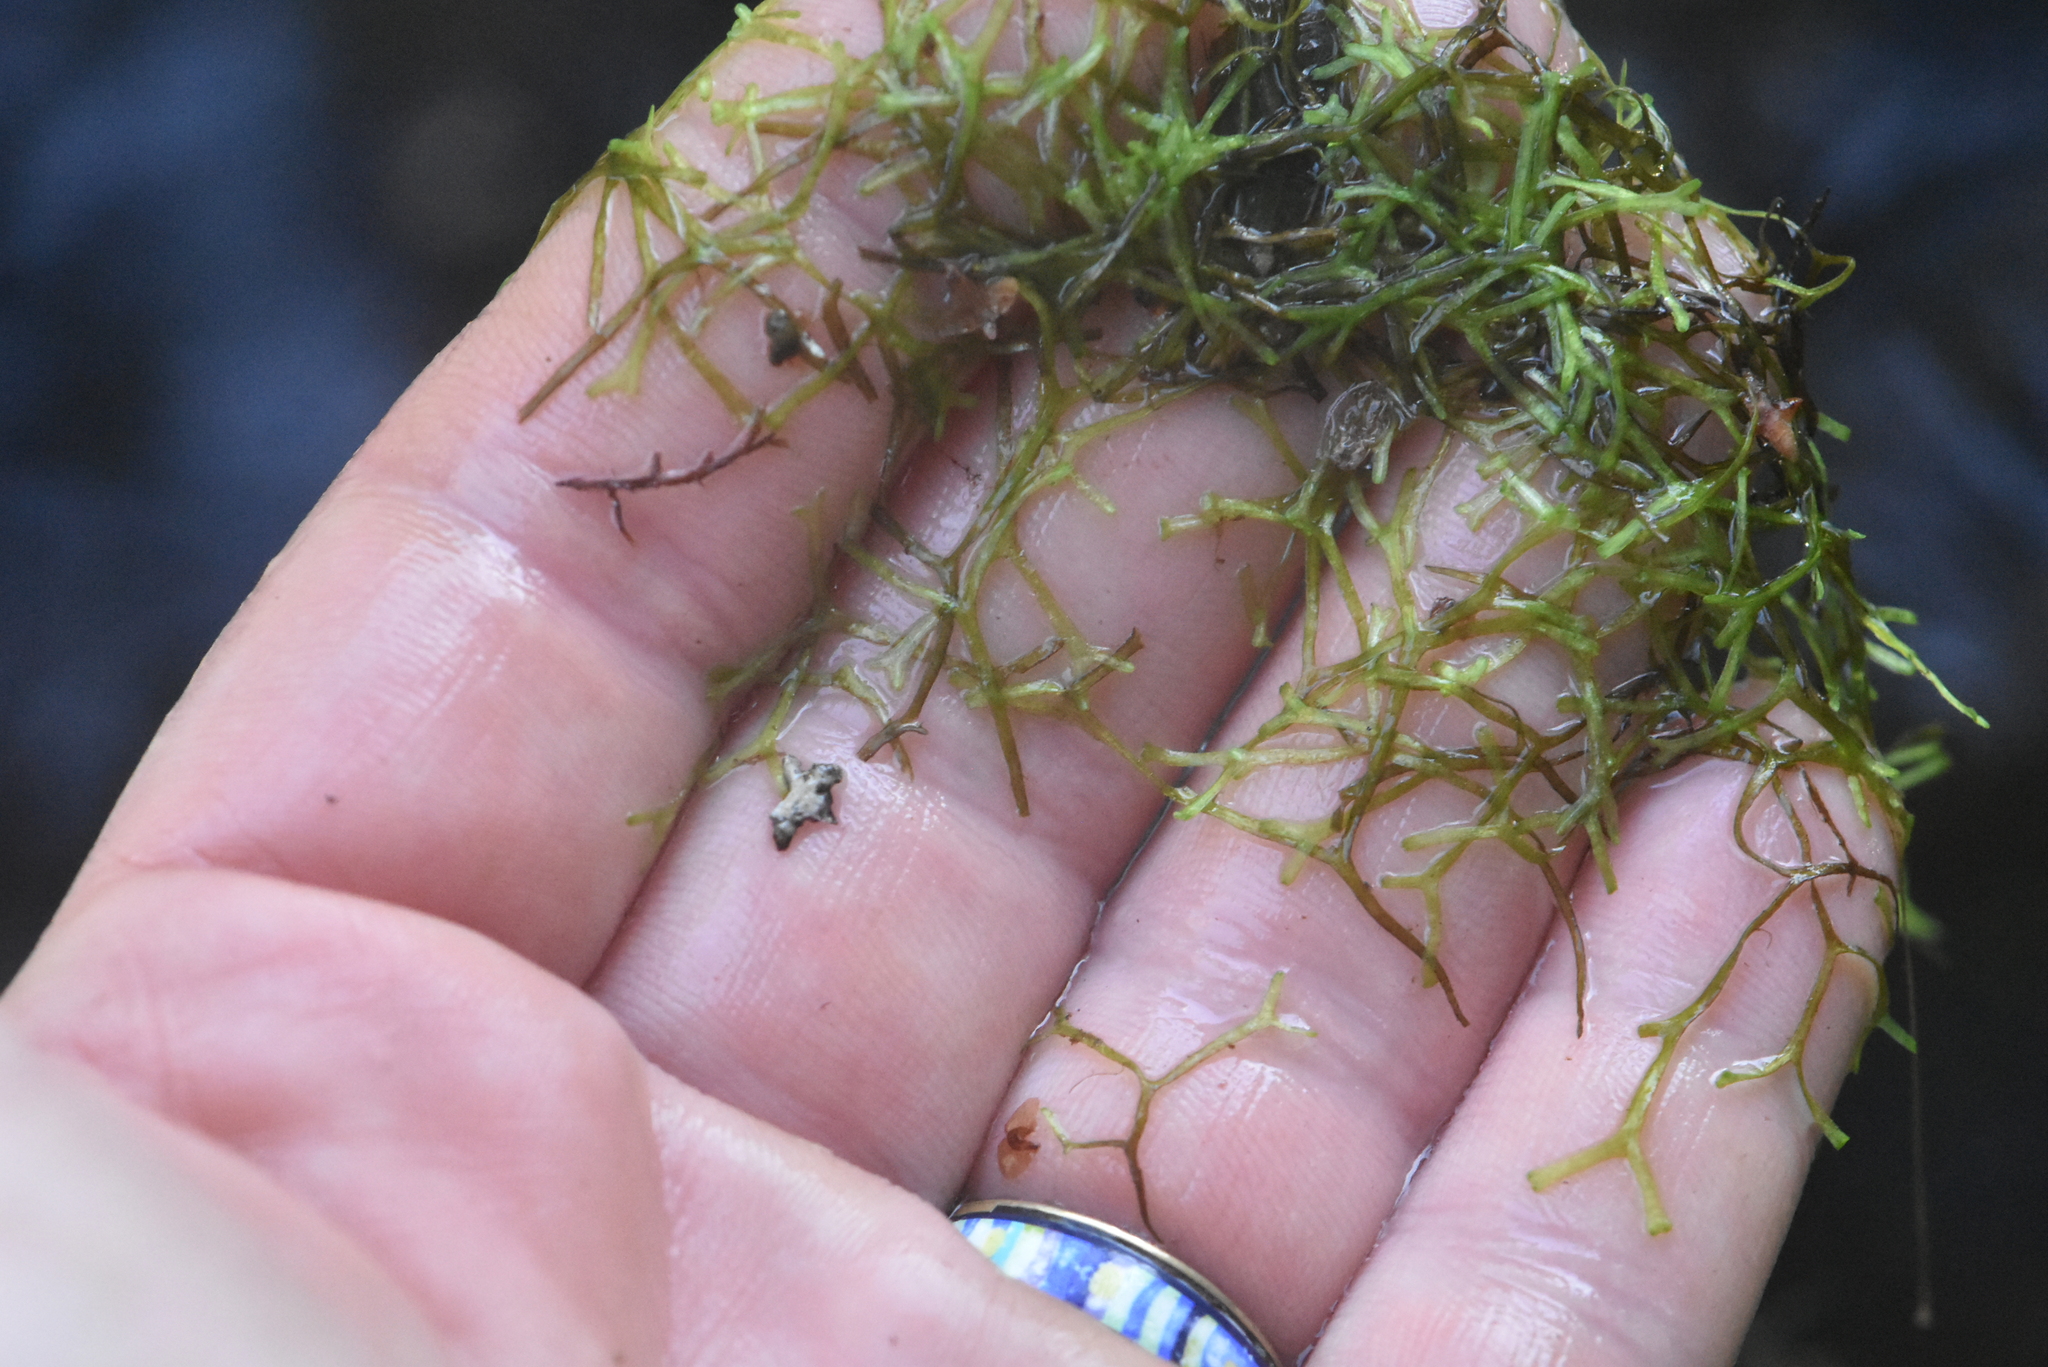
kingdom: Plantae
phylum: Marchantiophyta
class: Marchantiopsida
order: Marchantiales
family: Ricciaceae
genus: Riccia
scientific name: Riccia fluitans
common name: Floating crystalwort
